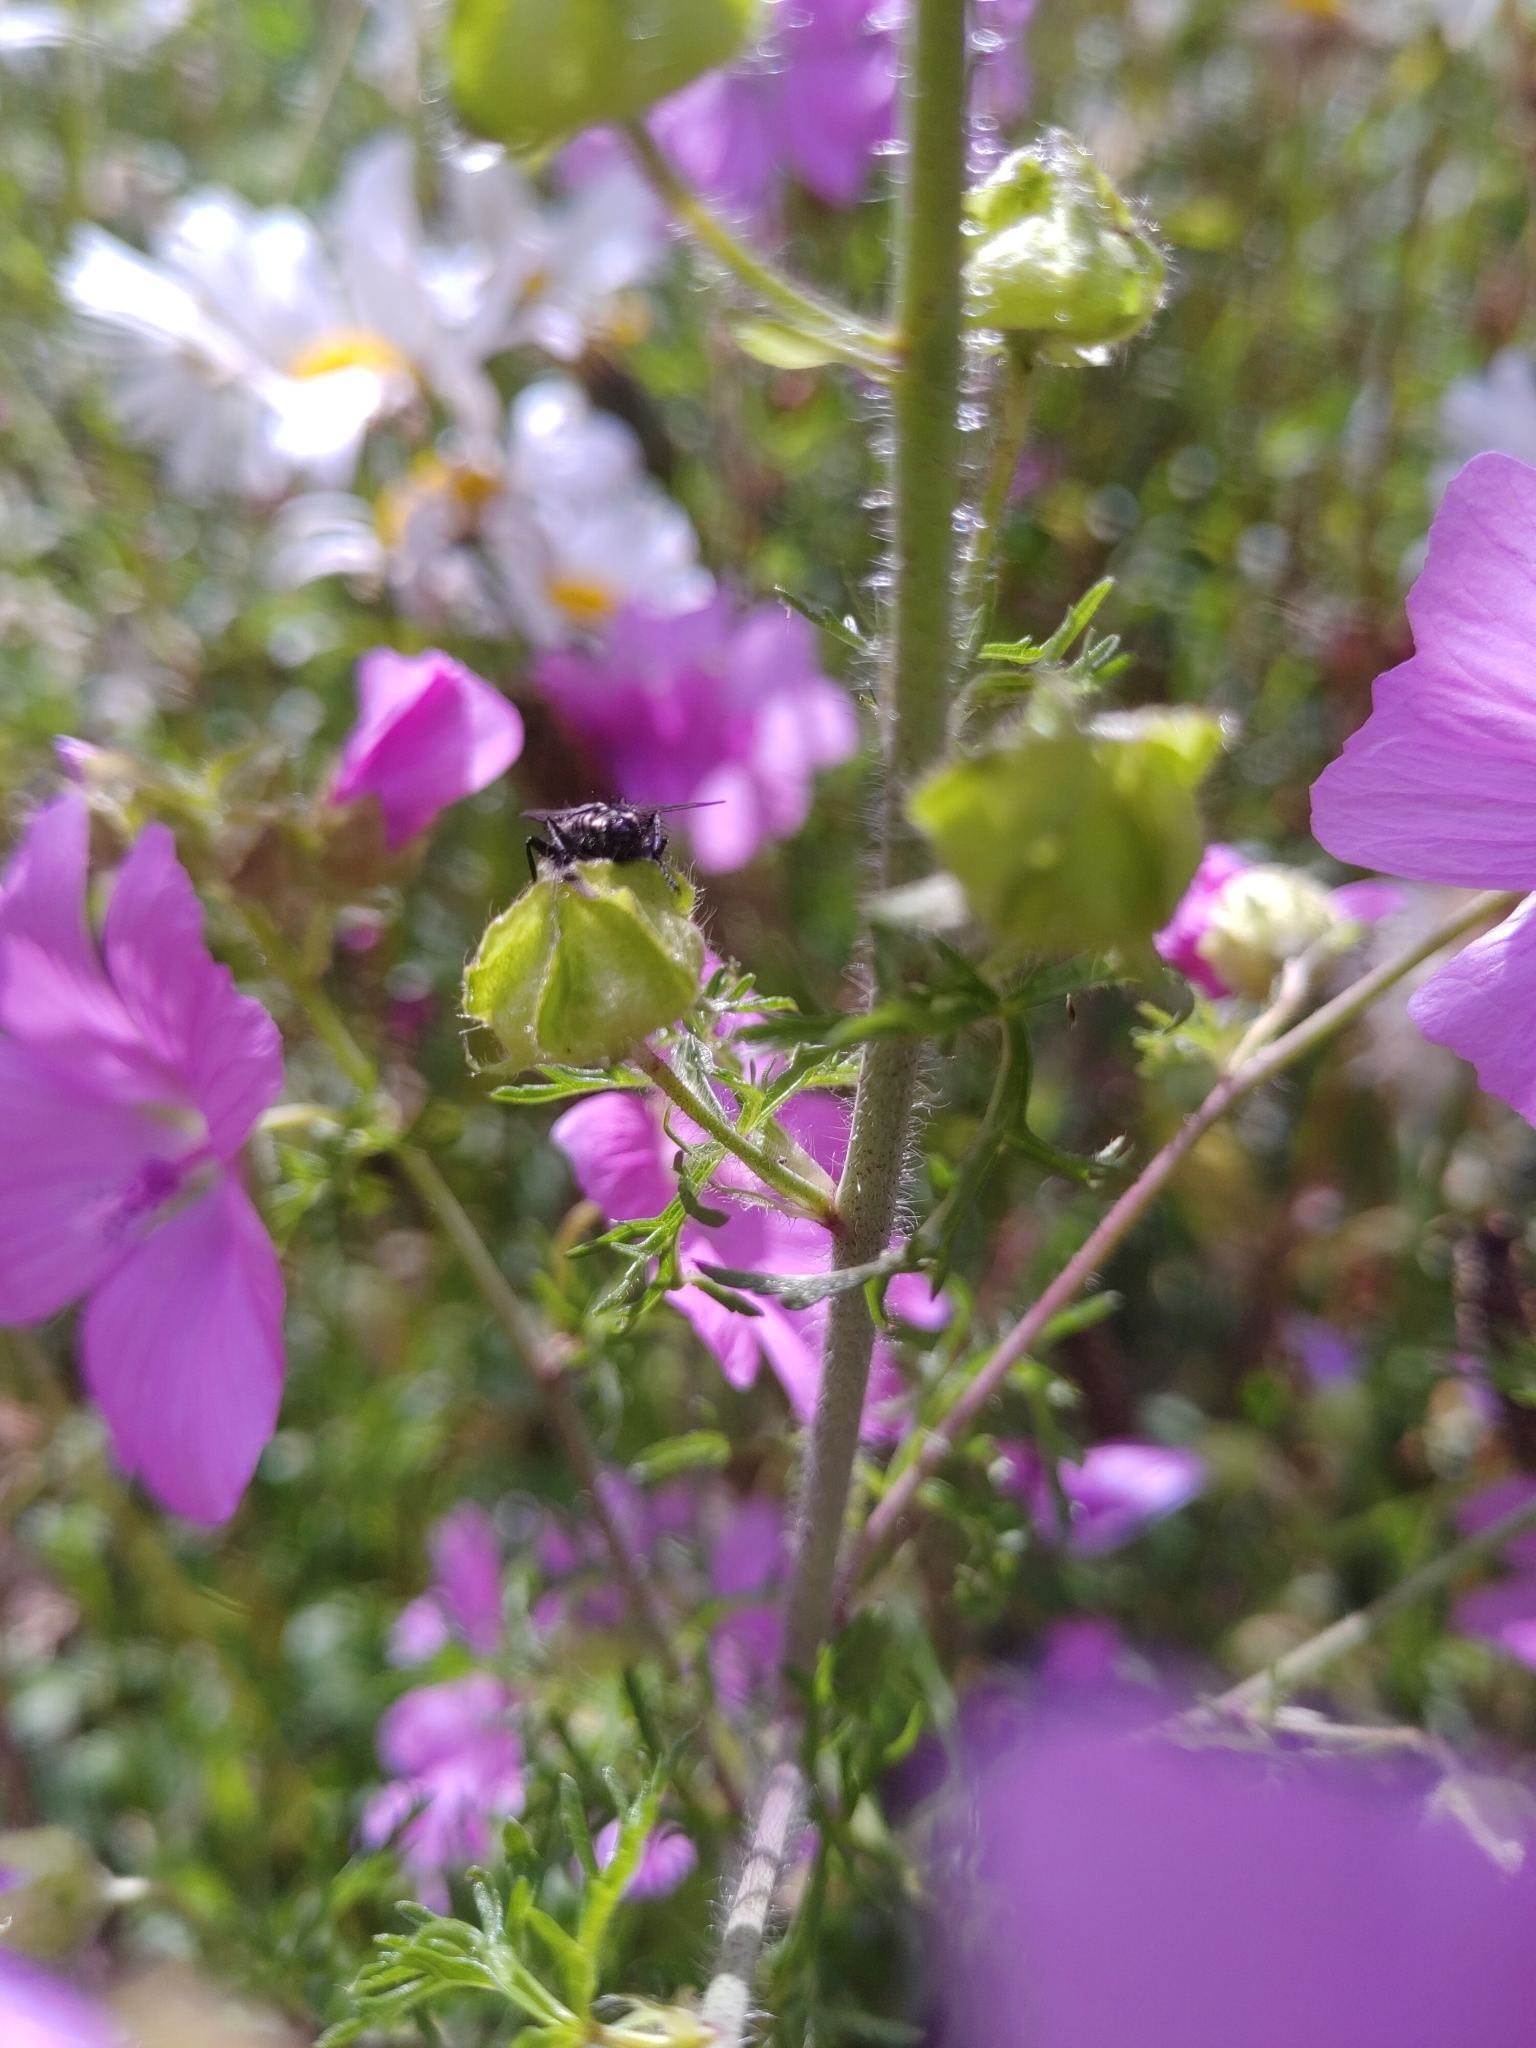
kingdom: Plantae
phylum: Tracheophyta
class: Magnoliopsida
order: Malvales
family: Malvaceae
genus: Malva
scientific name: Malva moschata
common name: Musk mallow
